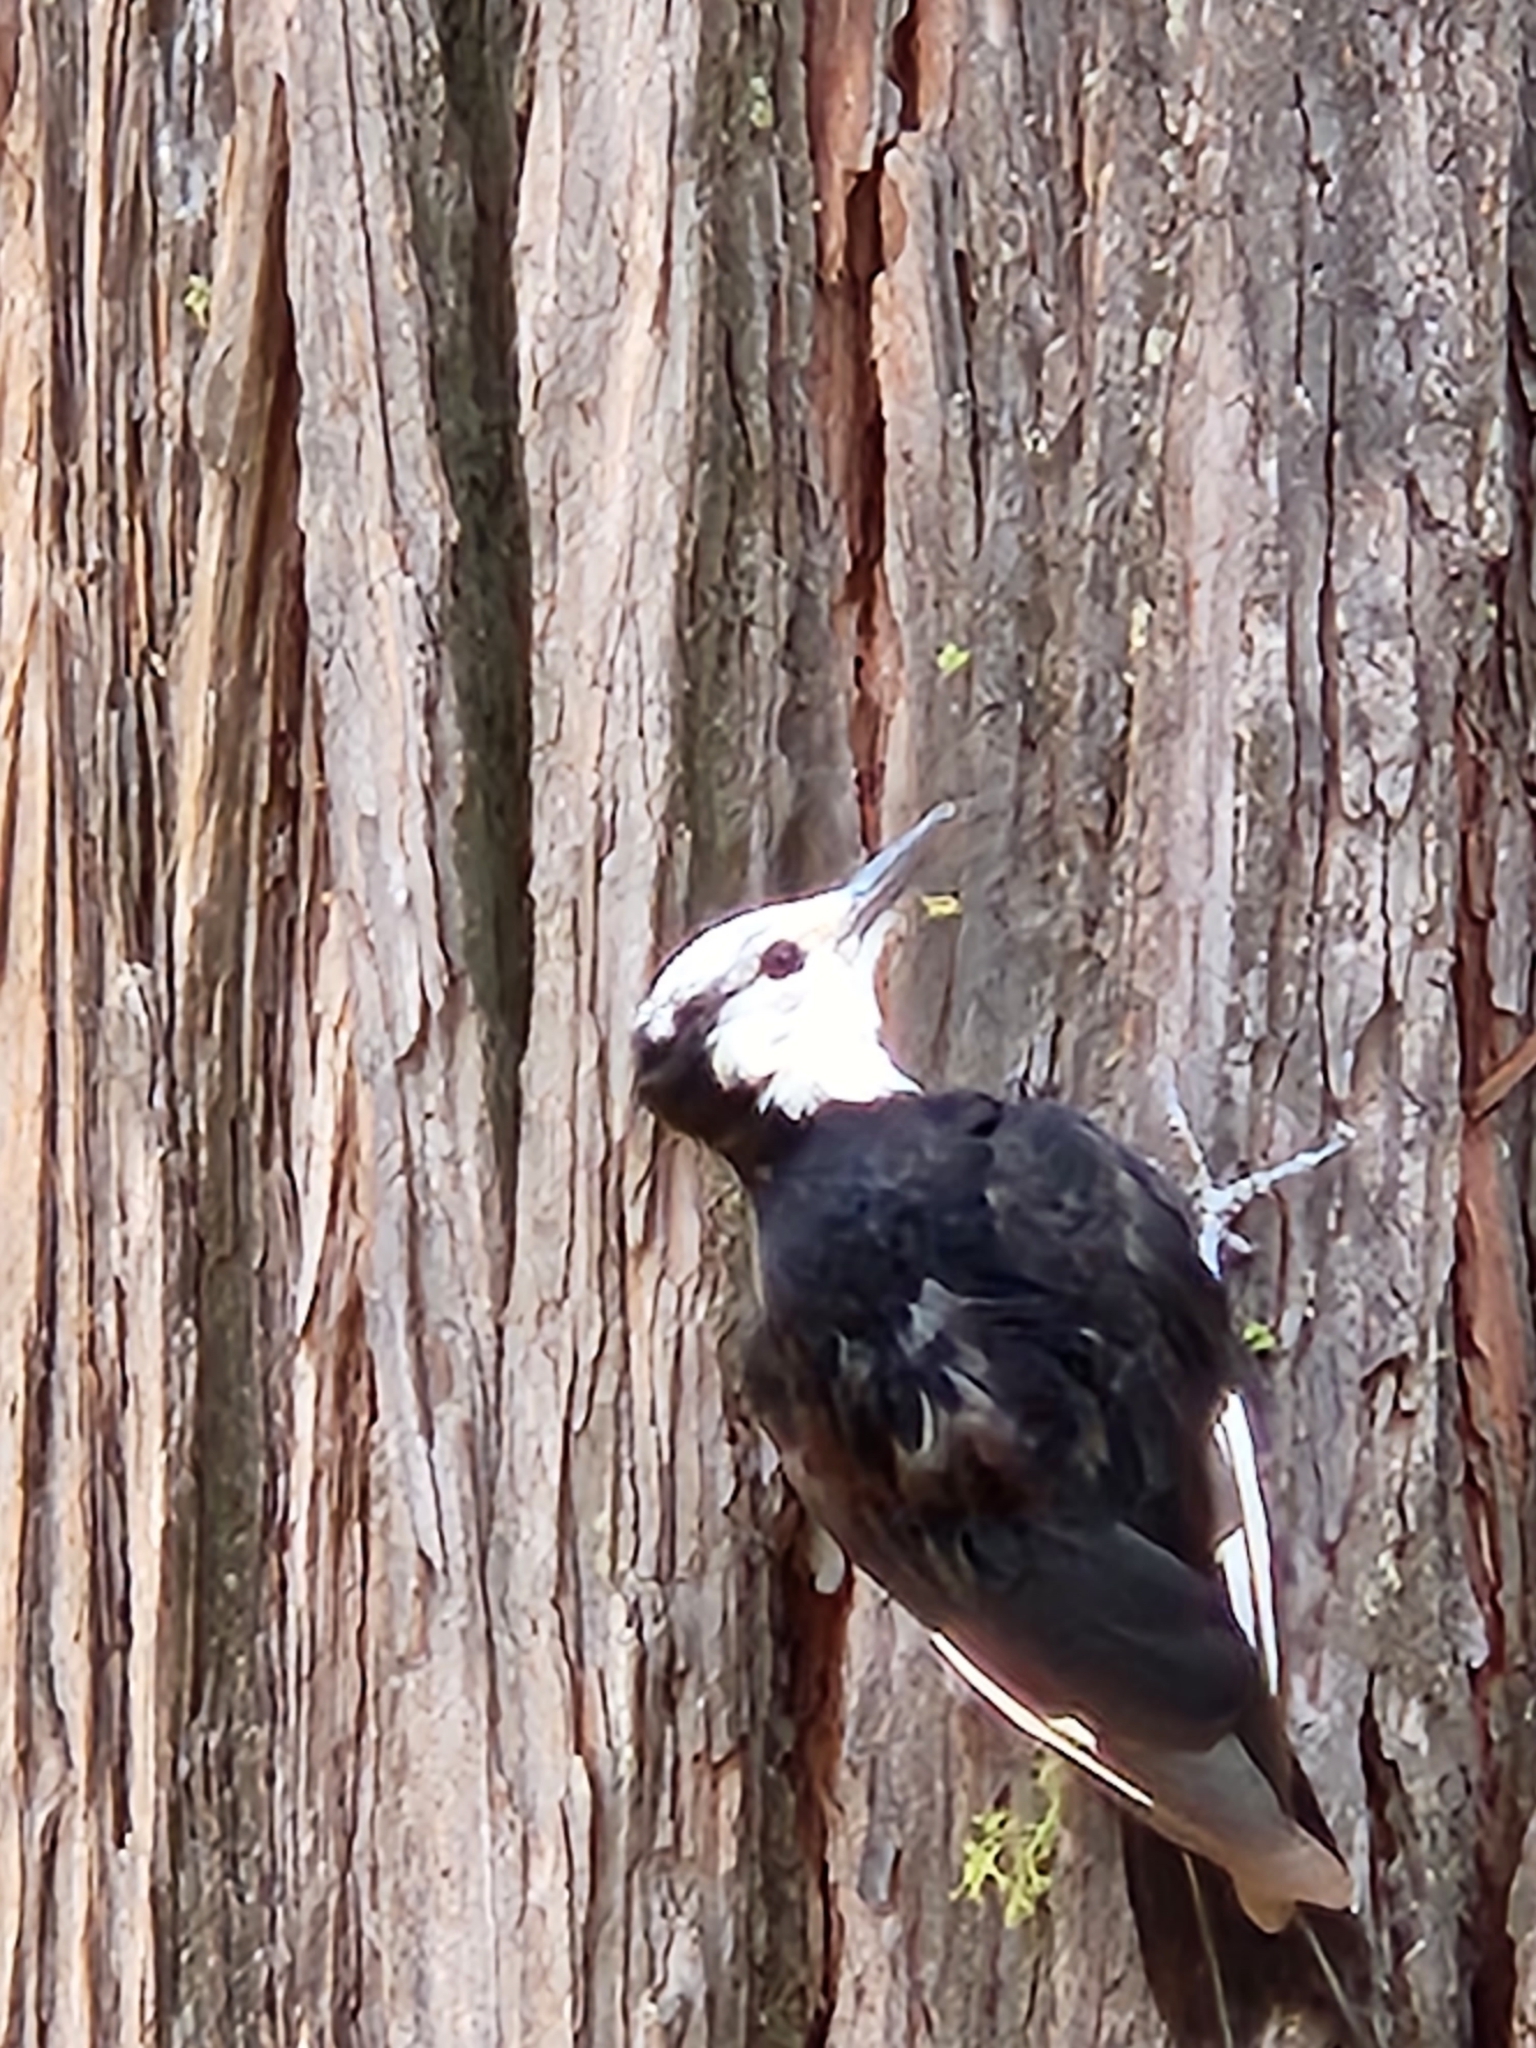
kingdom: Animalia
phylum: Chordata
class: Aves
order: Piciformes
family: Picidae
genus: Leuconotopicus
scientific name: Leuconotopicus albolarvatus
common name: White-headed woodpecker
